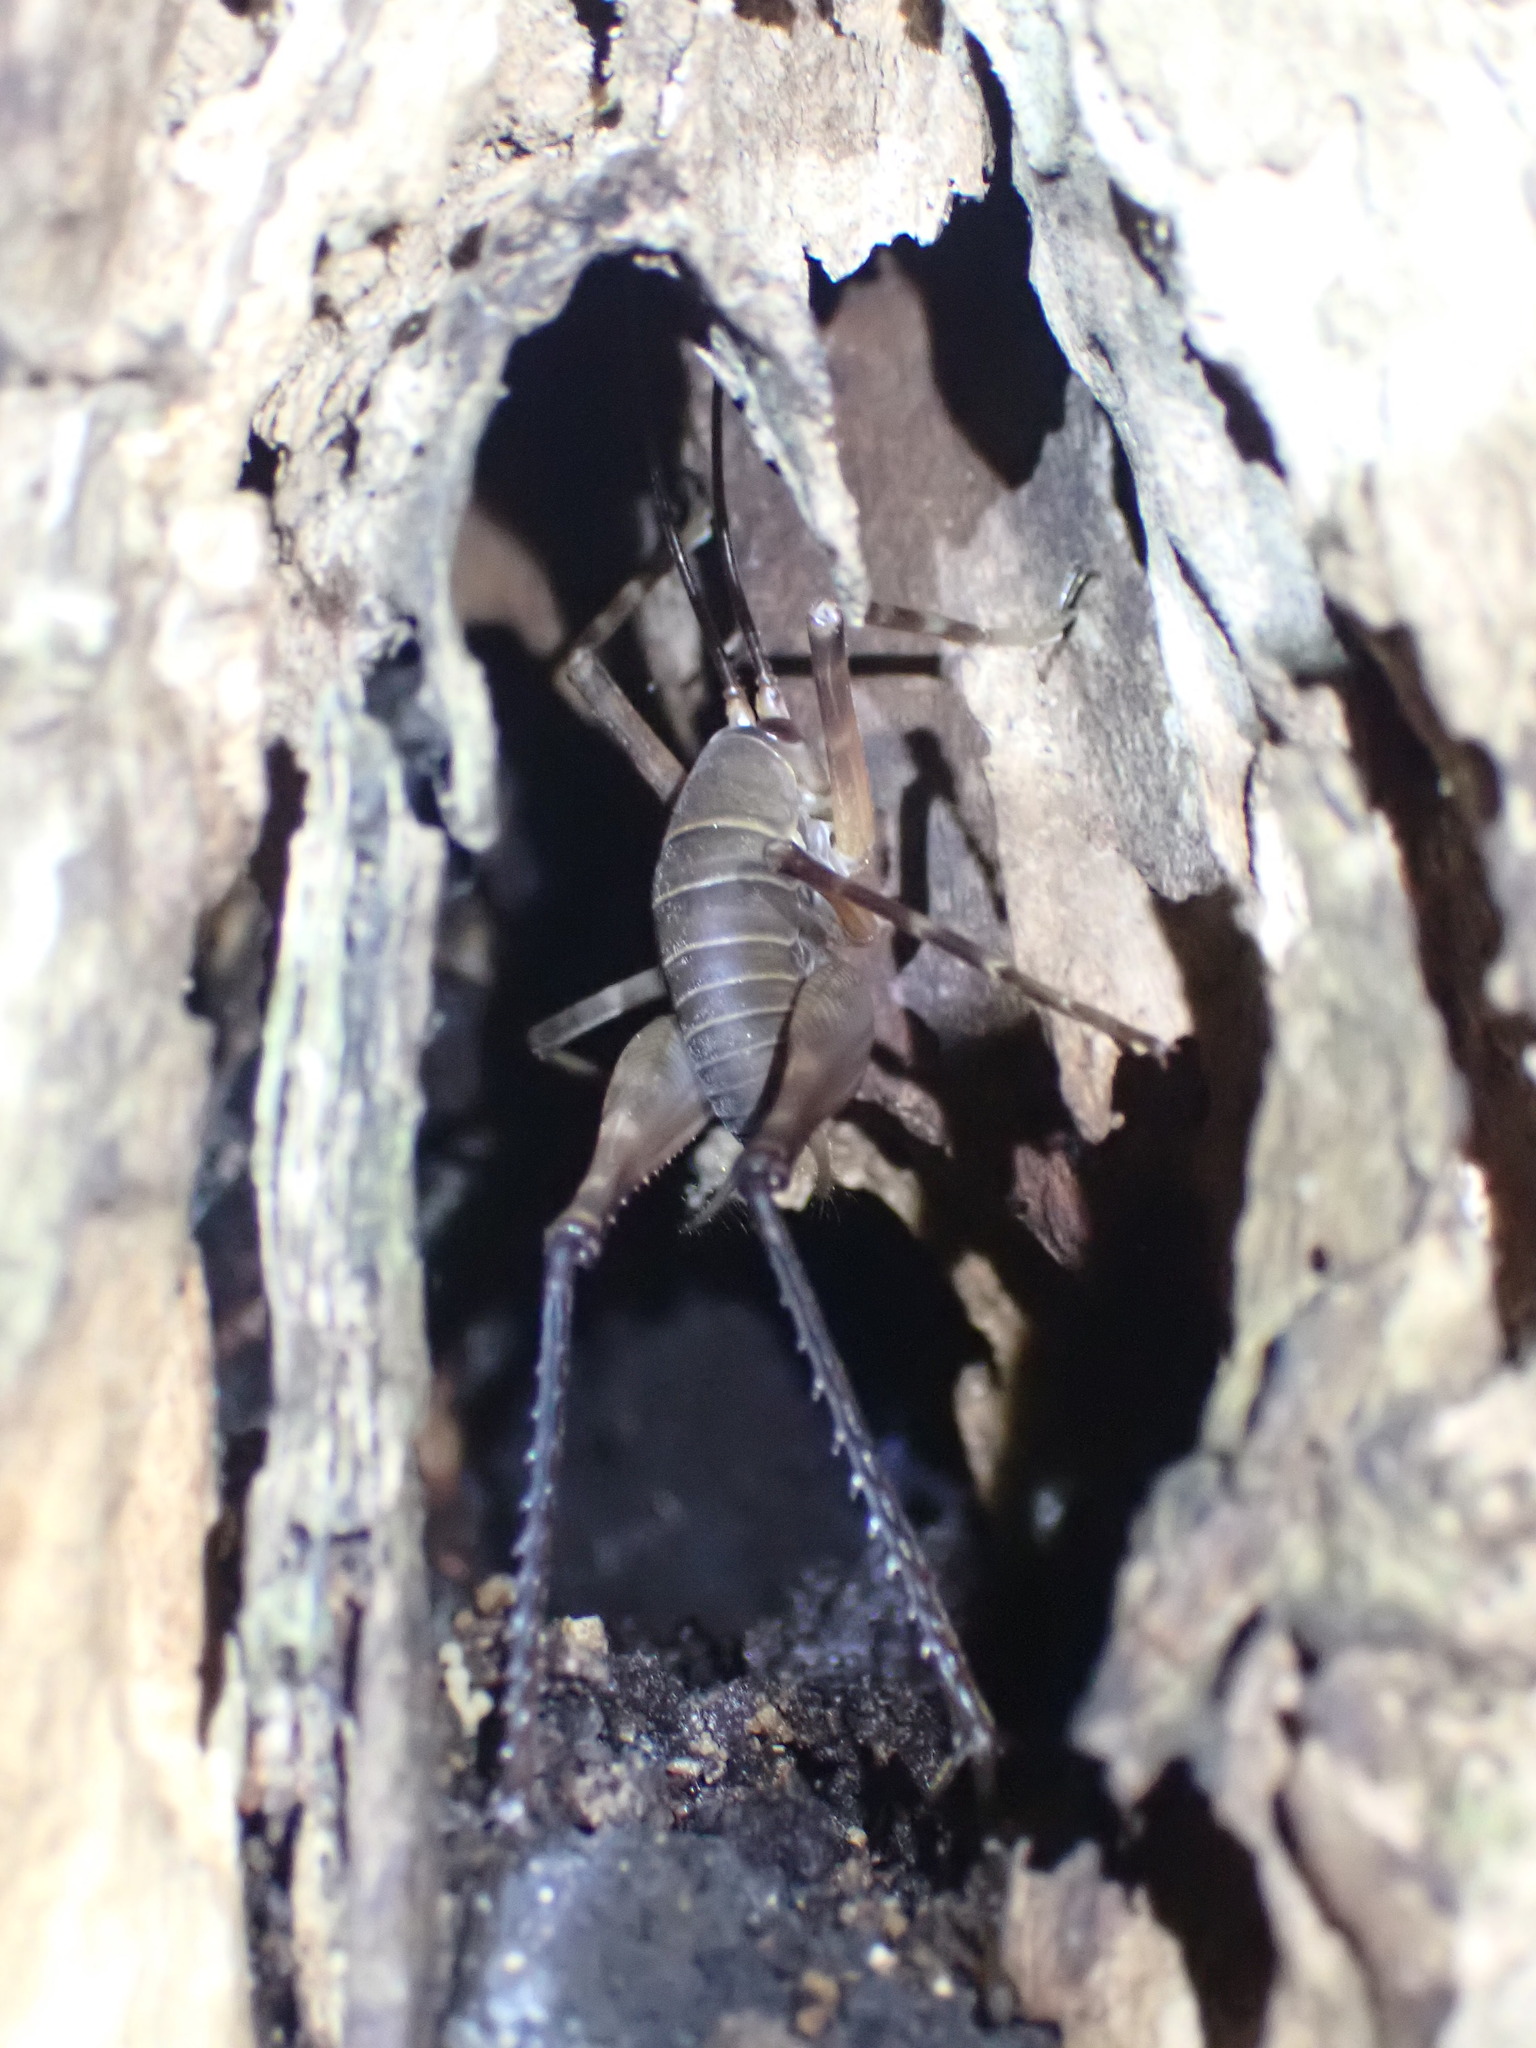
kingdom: Animalia
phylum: Arthropoda
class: Insecta
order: Orthoptera
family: Rhaphidophoridae
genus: Pachyrhamma
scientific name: Pachyrhamma longipes
